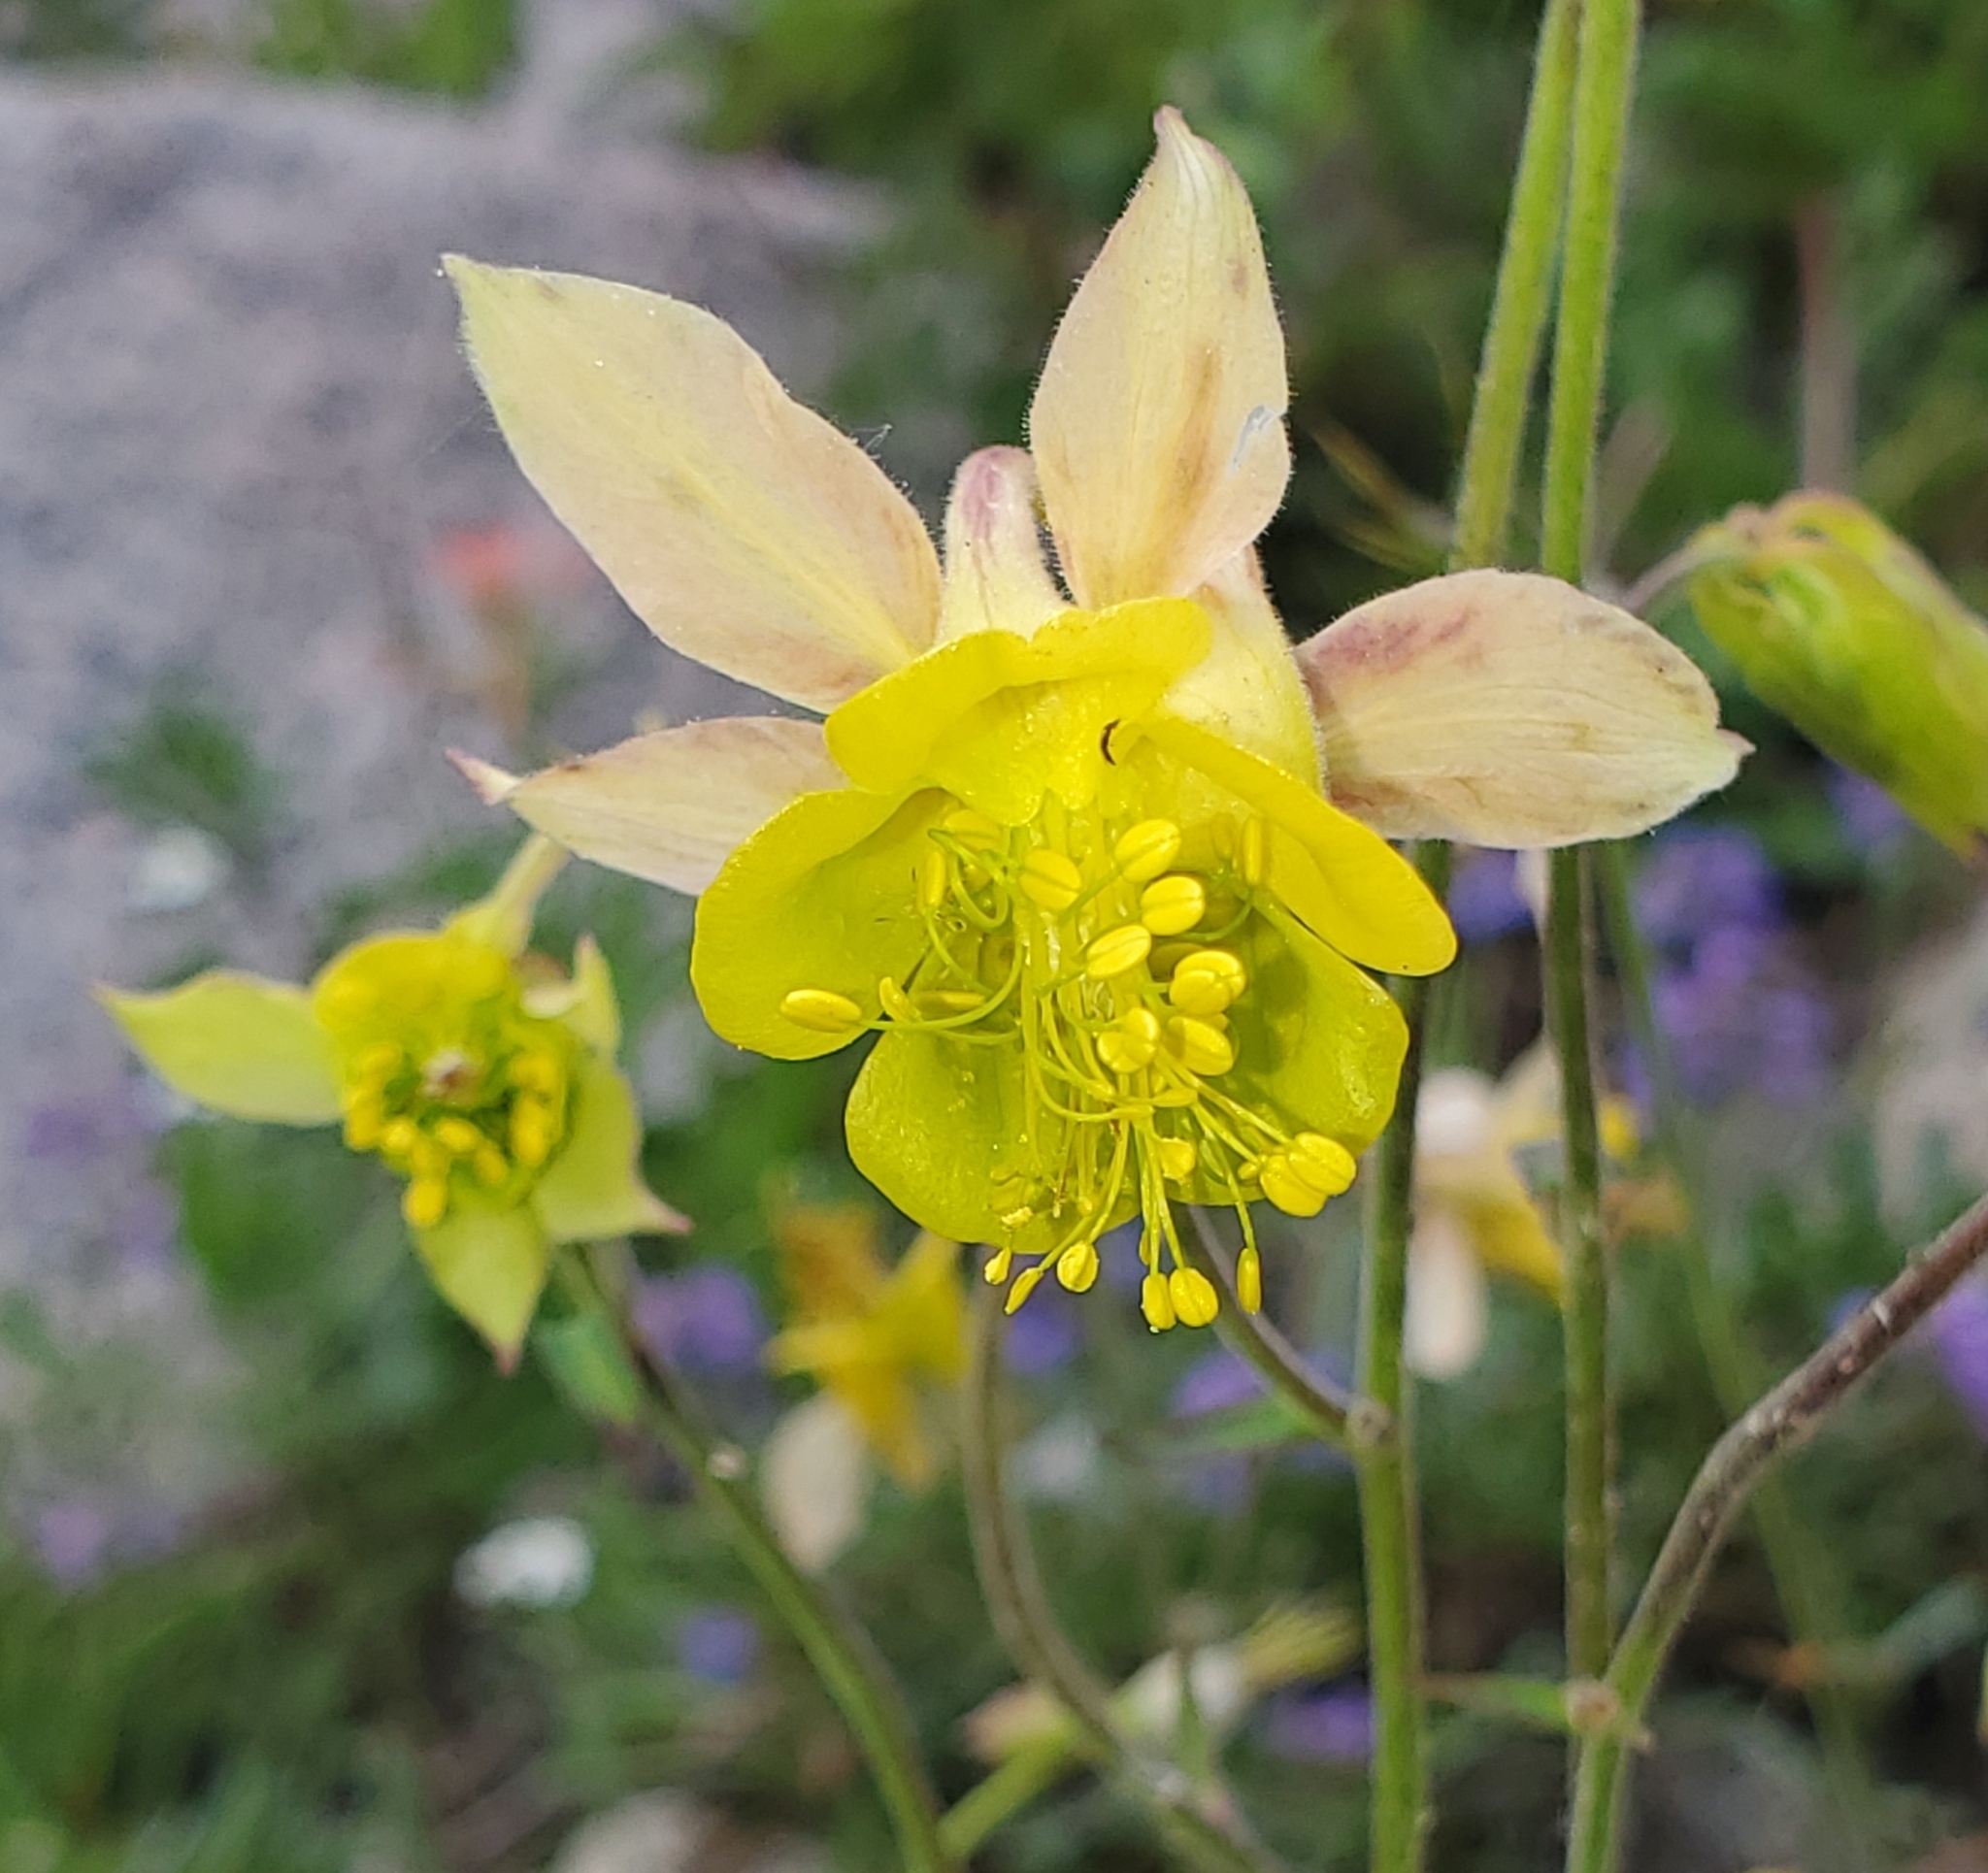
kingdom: Plantae
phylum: Tracheophyta
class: Magnoliopsida
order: Ranunculales
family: Ranunculaceae
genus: Aquilegia
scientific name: Aquilegia flavescens
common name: Yellow columbine
